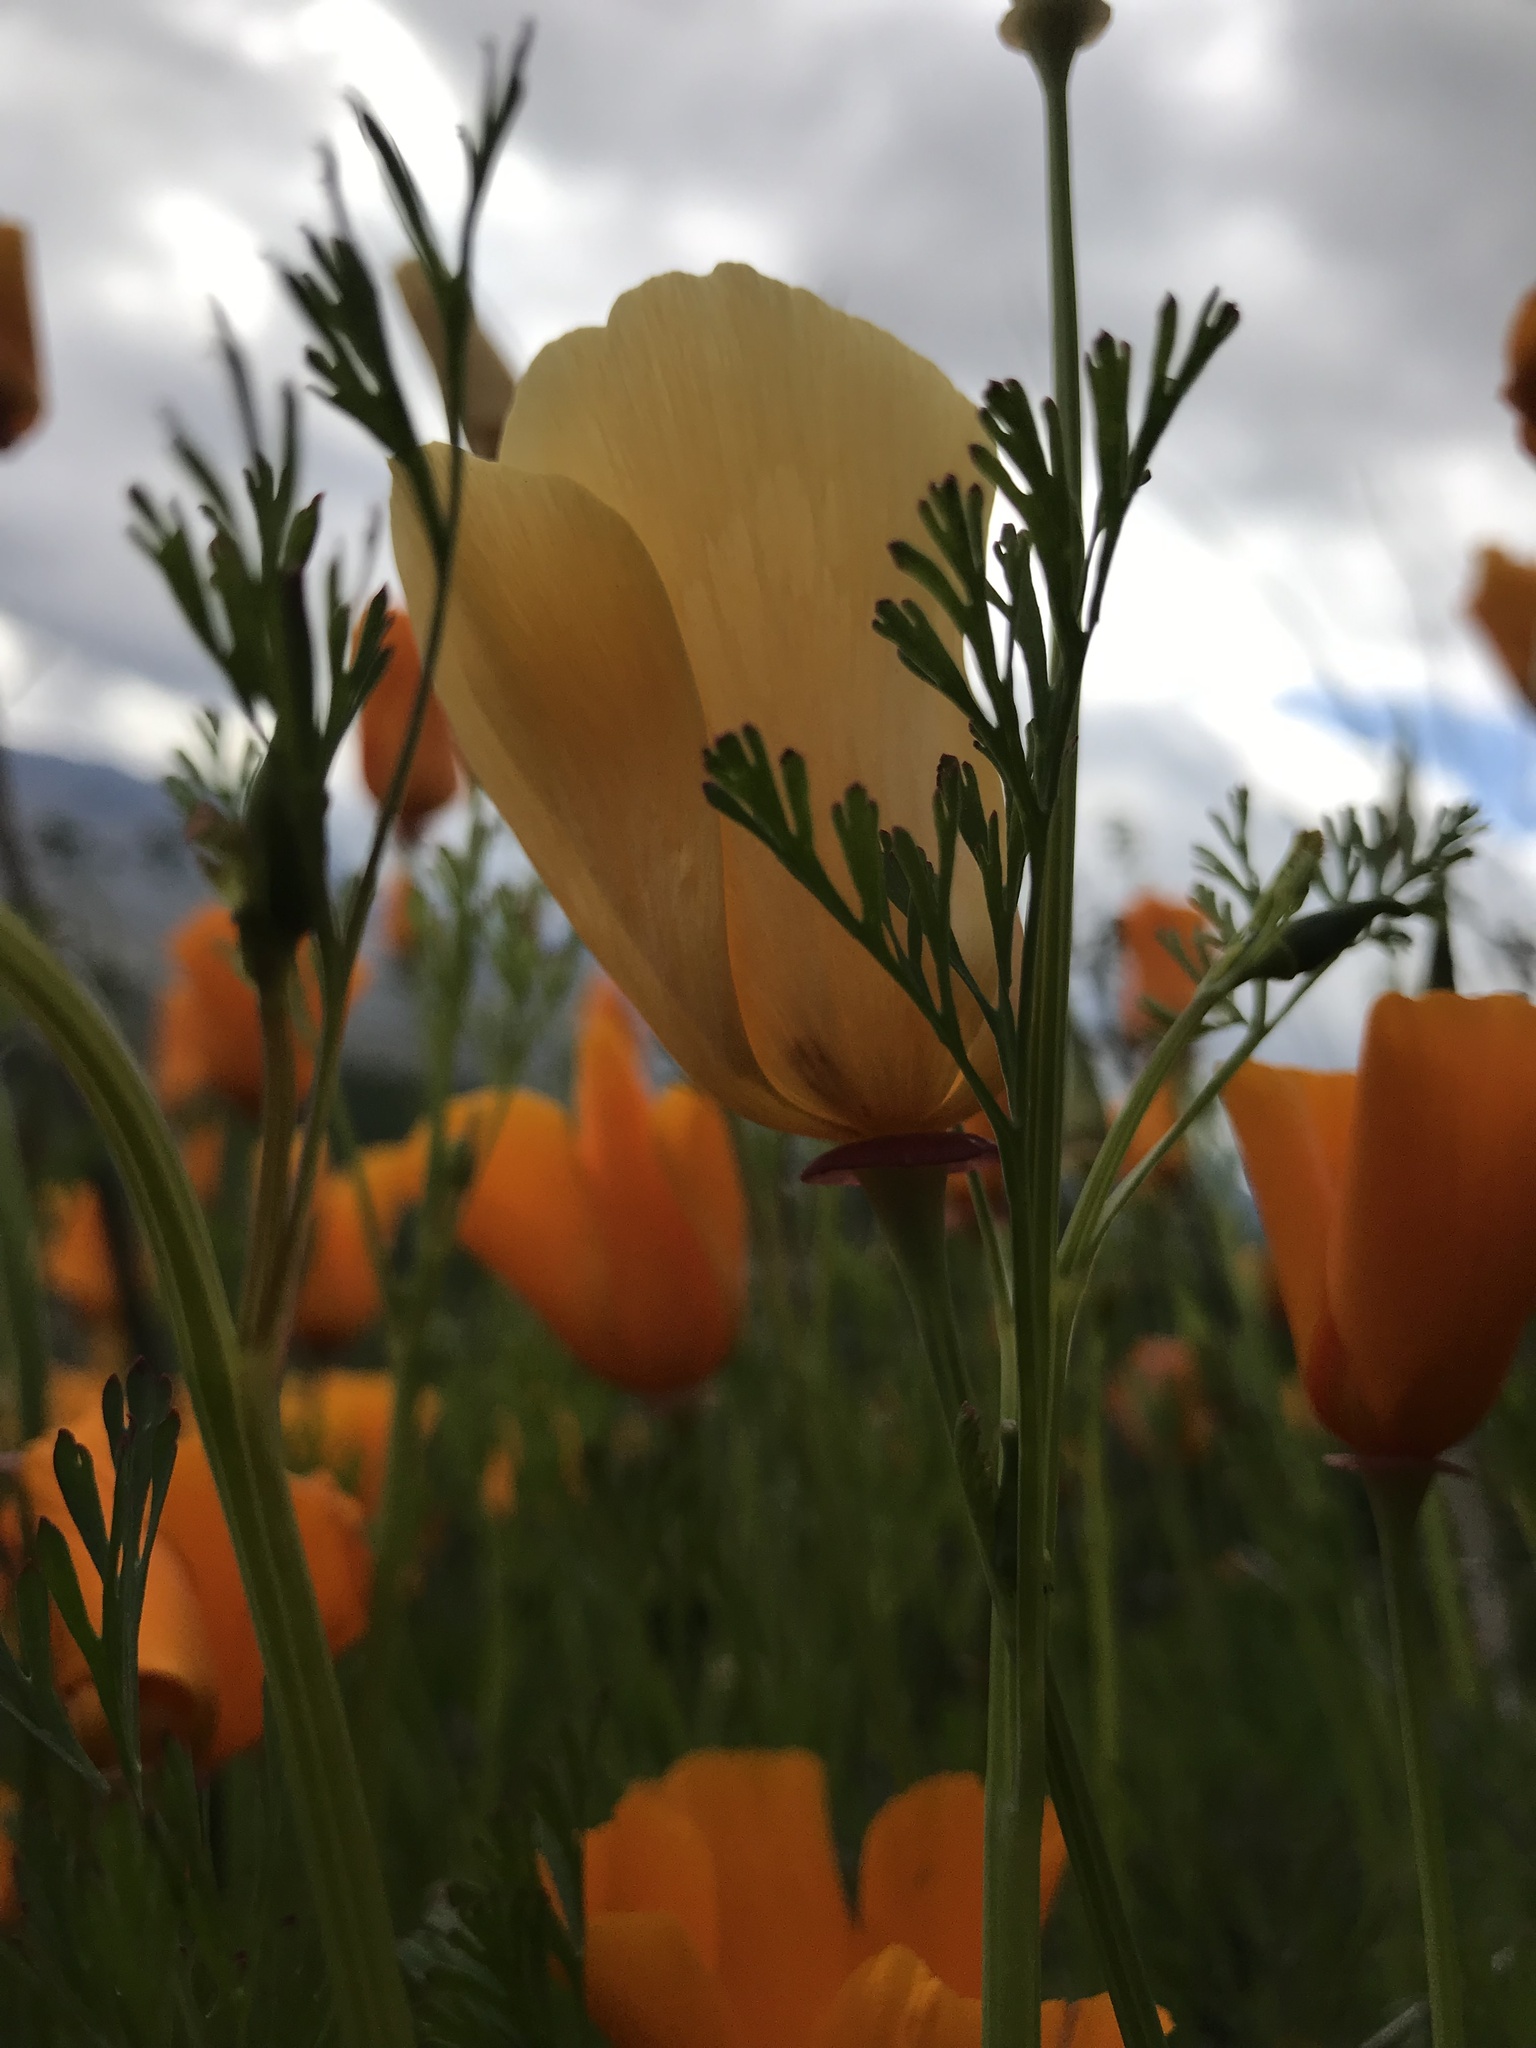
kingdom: Plantae
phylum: Tracheophyta
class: Magnoliopsida
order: Ranunculales
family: Papaveraceae
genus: Eschscholzia
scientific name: Eschscholzia californica
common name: California poppy
